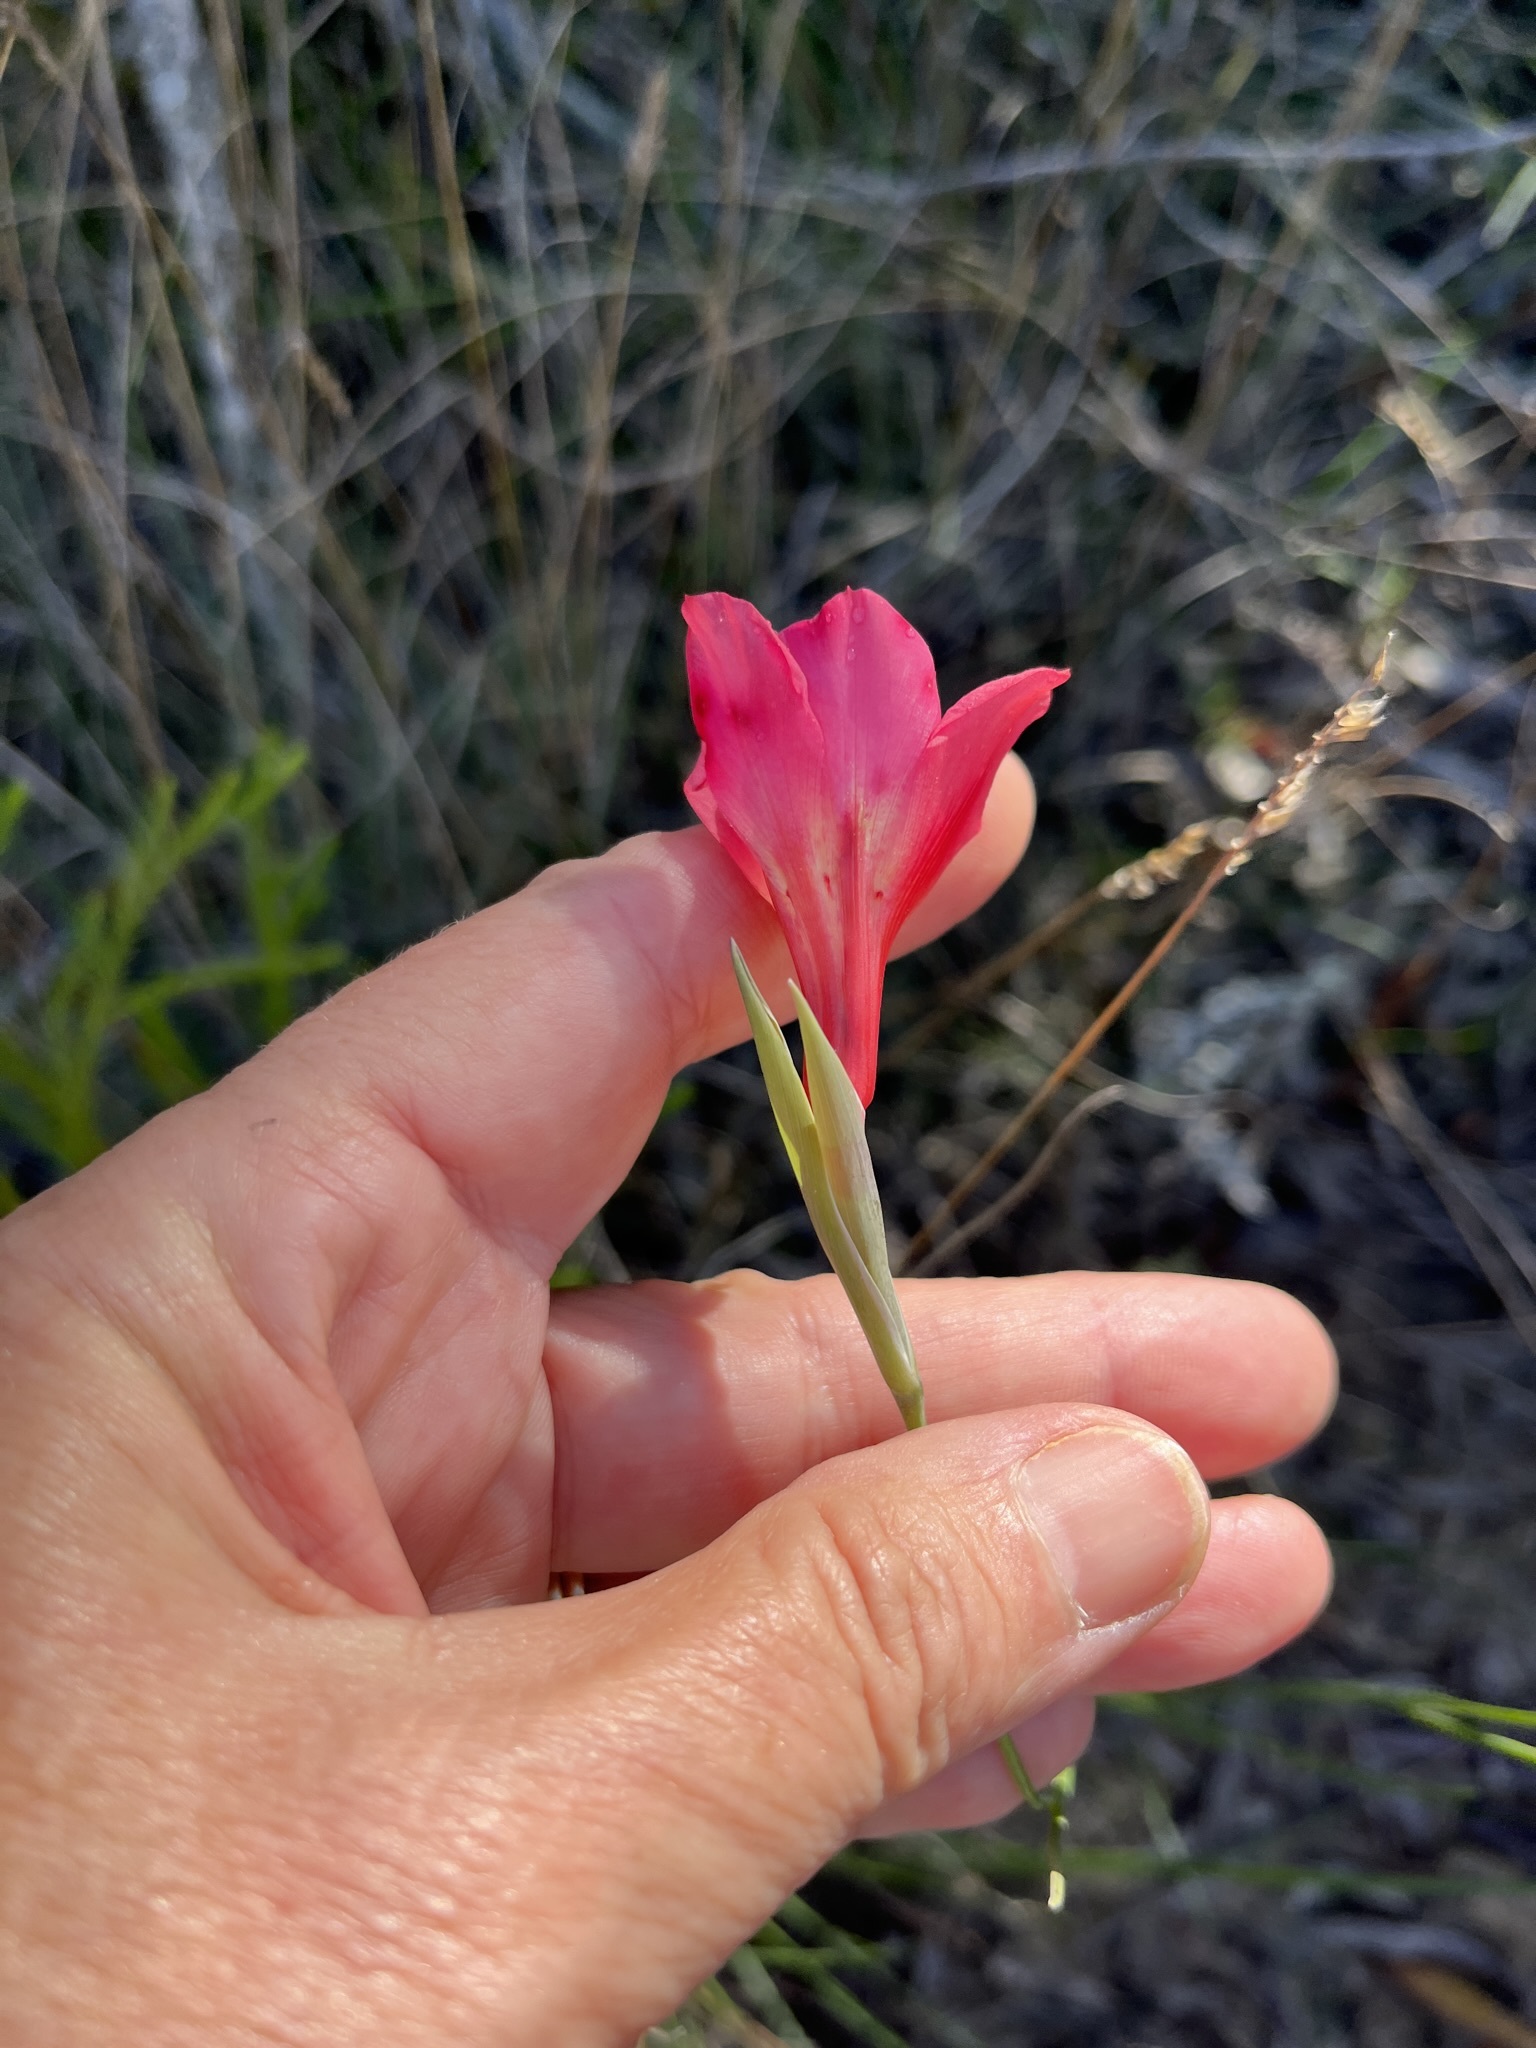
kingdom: Plantae
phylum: Tracheophyta
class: Liliopsida
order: Asparagales
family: Iridaceae
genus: Gladiolus
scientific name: Gladiolus meridionalis
